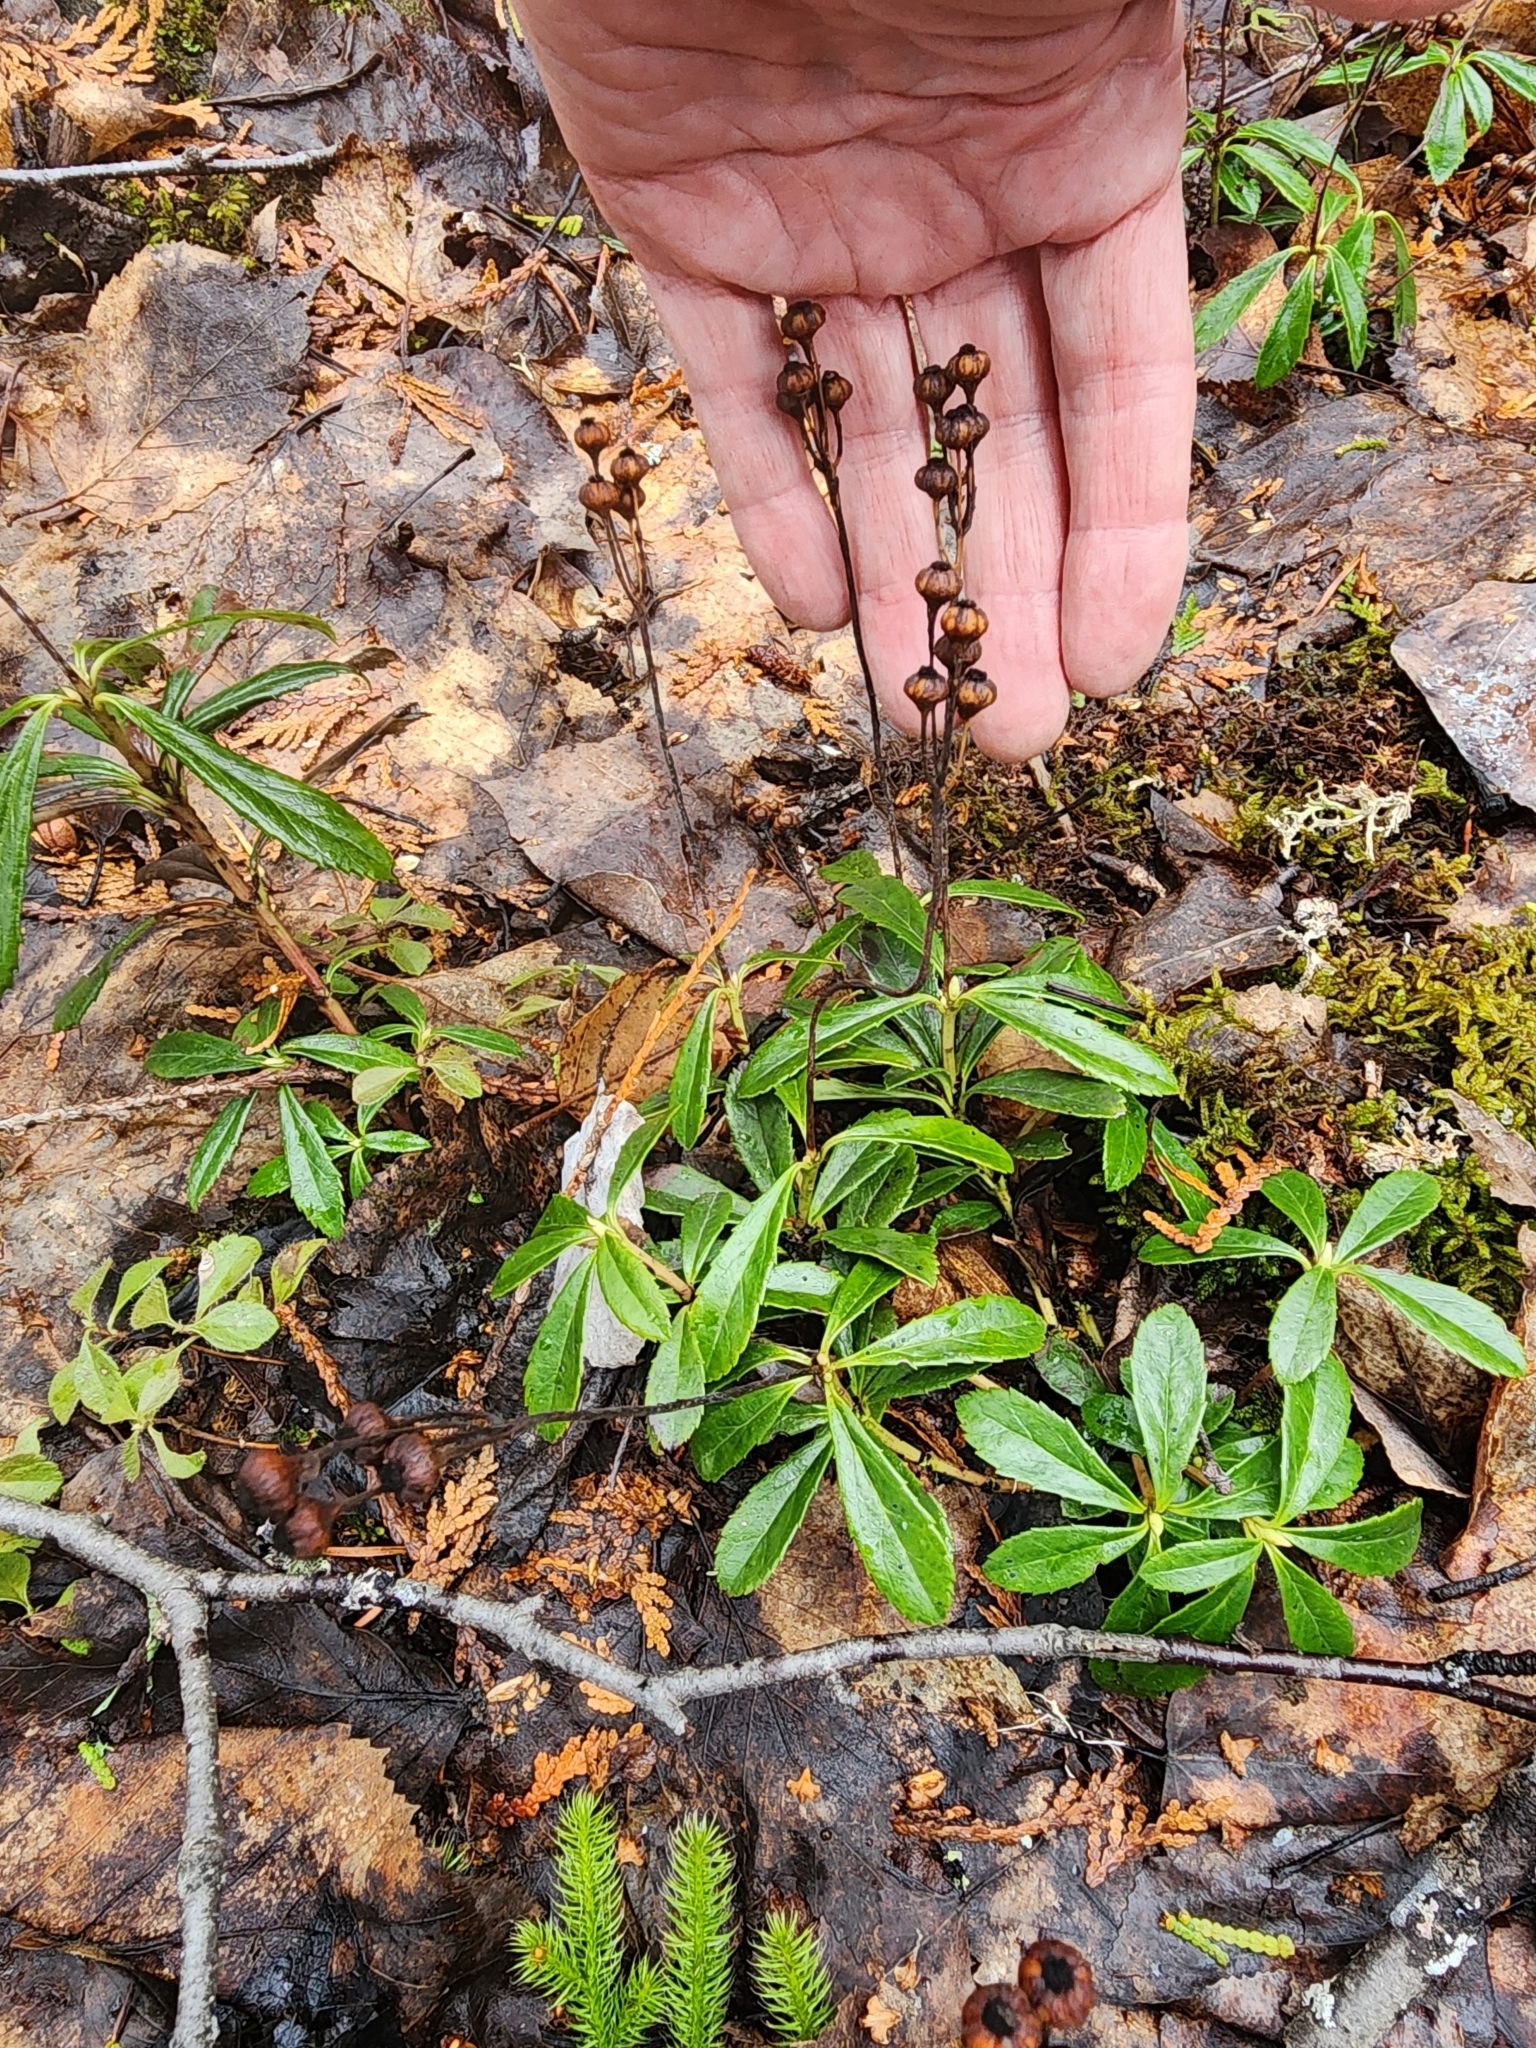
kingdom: Plantae
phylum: Tracheophyta
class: Magnoliopsida
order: Ericales
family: Ericaceae
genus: Chimaphila
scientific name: Chimaphila umbellata
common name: Pipsissewa
